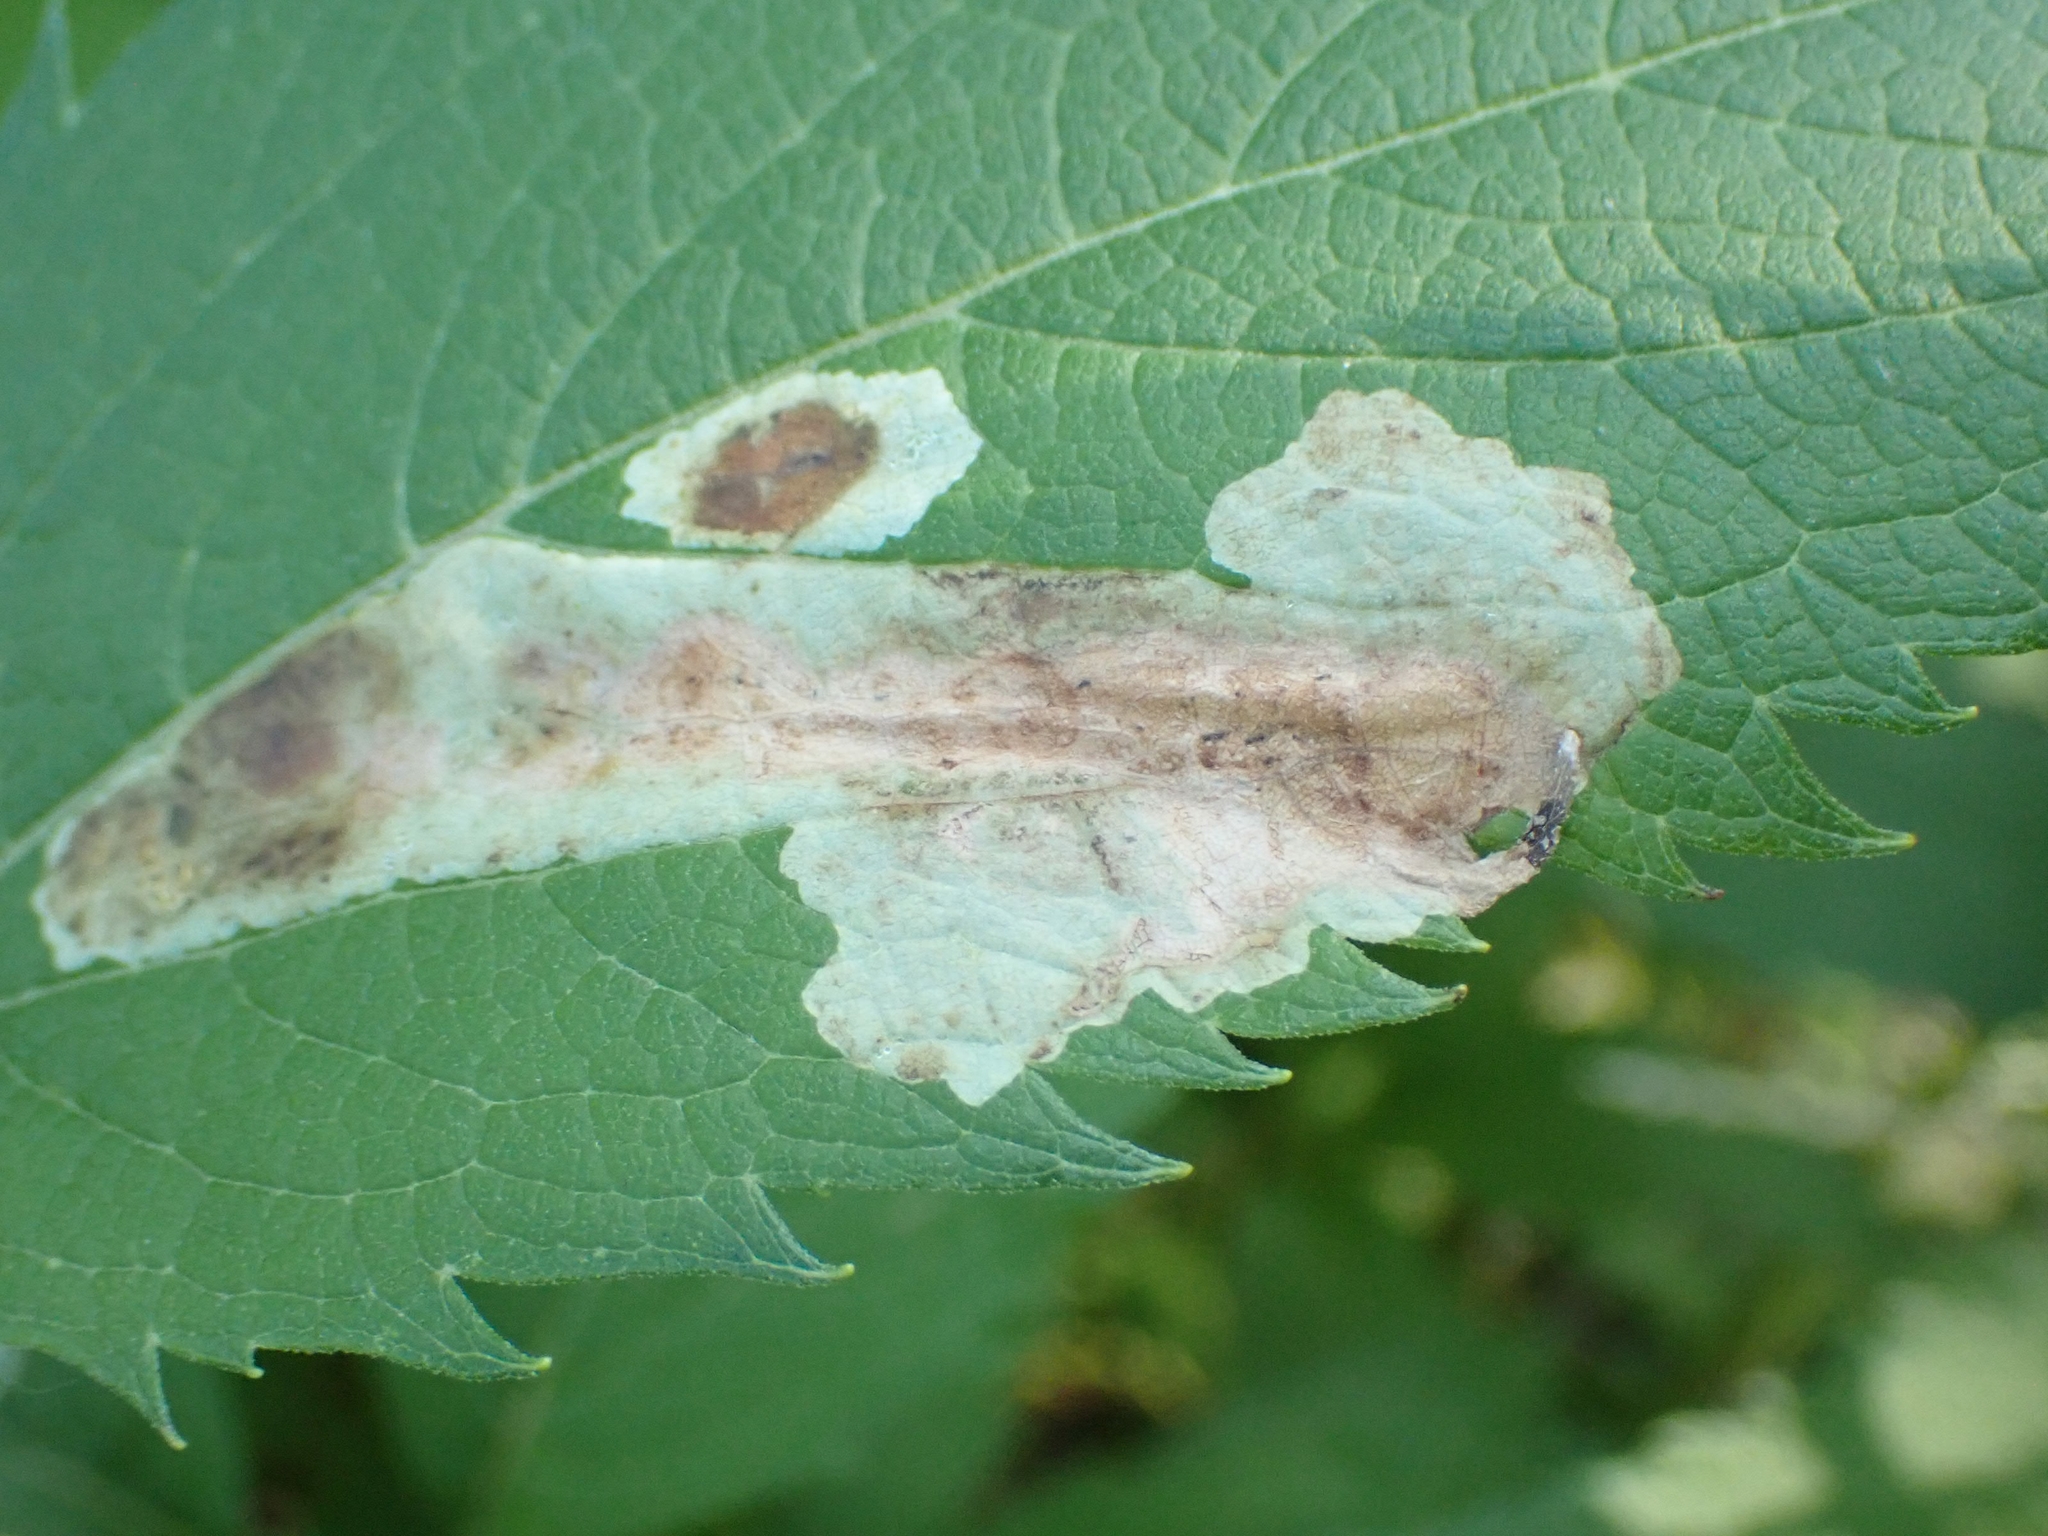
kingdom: Animalia
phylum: Arthropoda
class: Insecta
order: Diptera
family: Agromyzidae
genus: Calycomyza
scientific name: Calycomyza flavinotum
